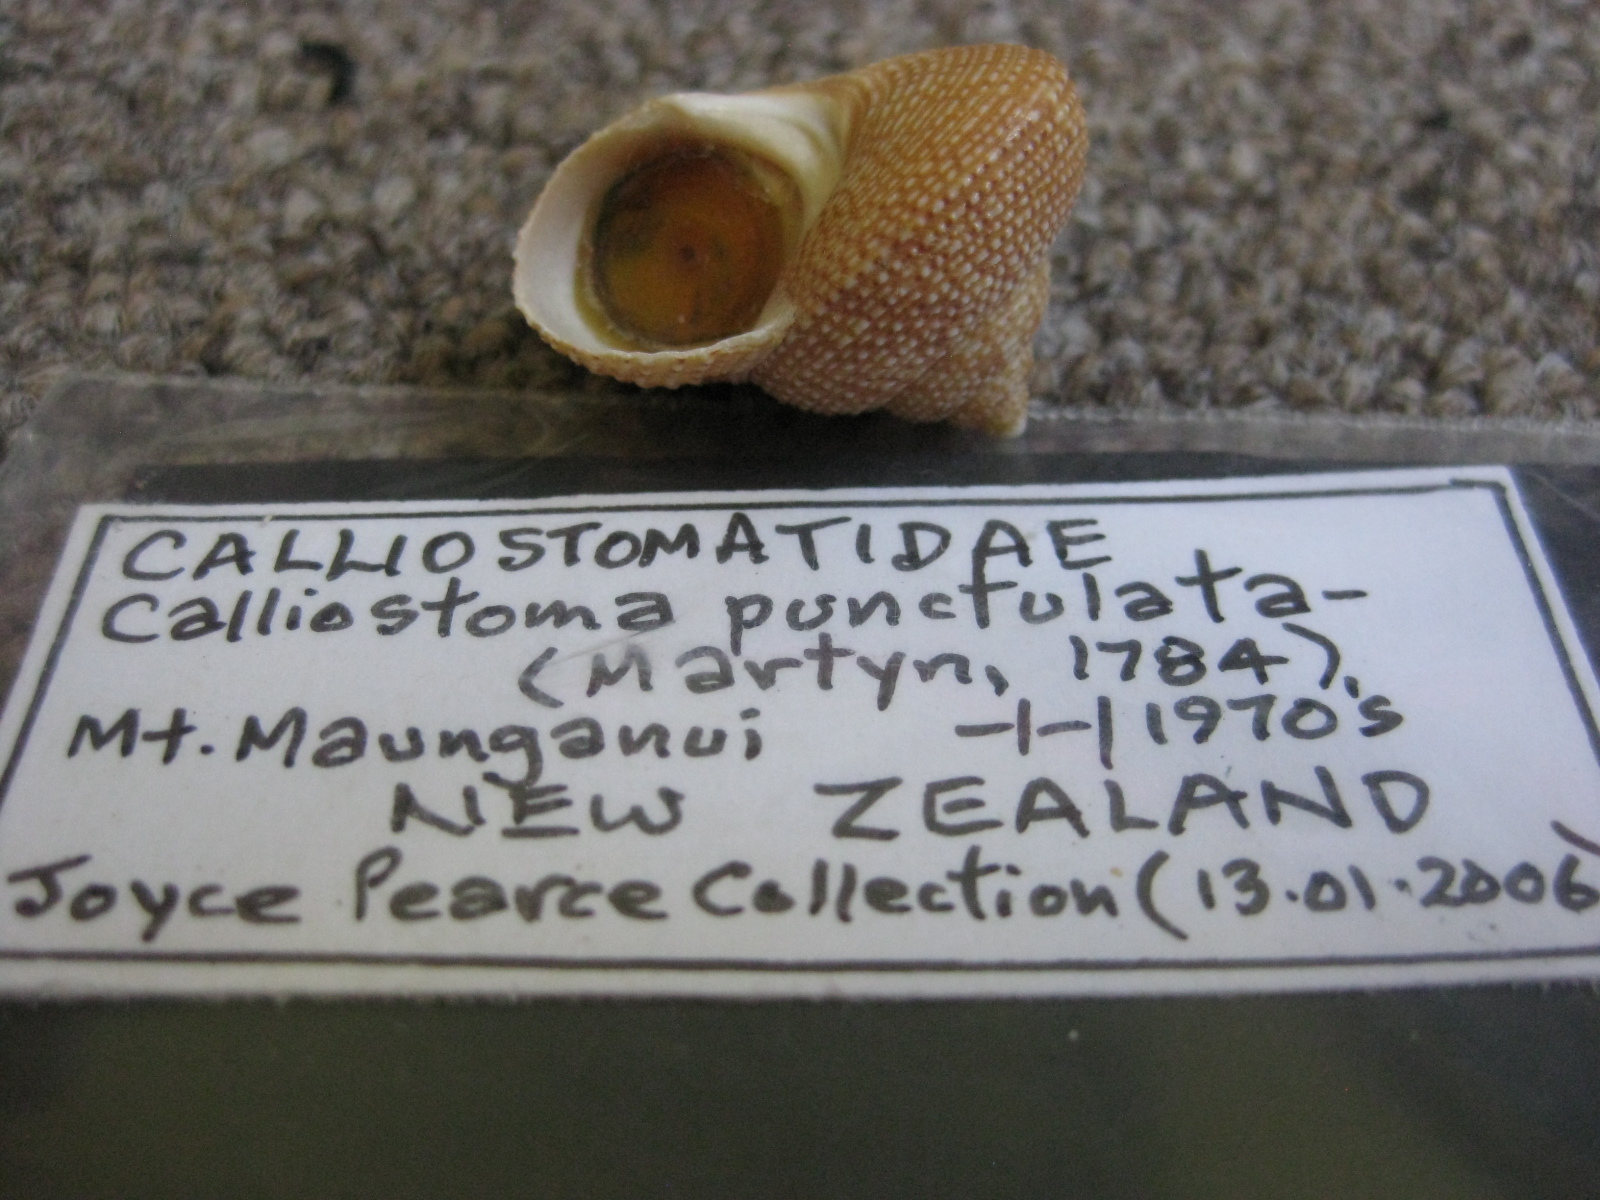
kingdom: Animalia
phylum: Mollusca
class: Gastropoda
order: Trochida
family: Calliostomatidae
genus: Maurea
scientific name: Maurea punctulata
